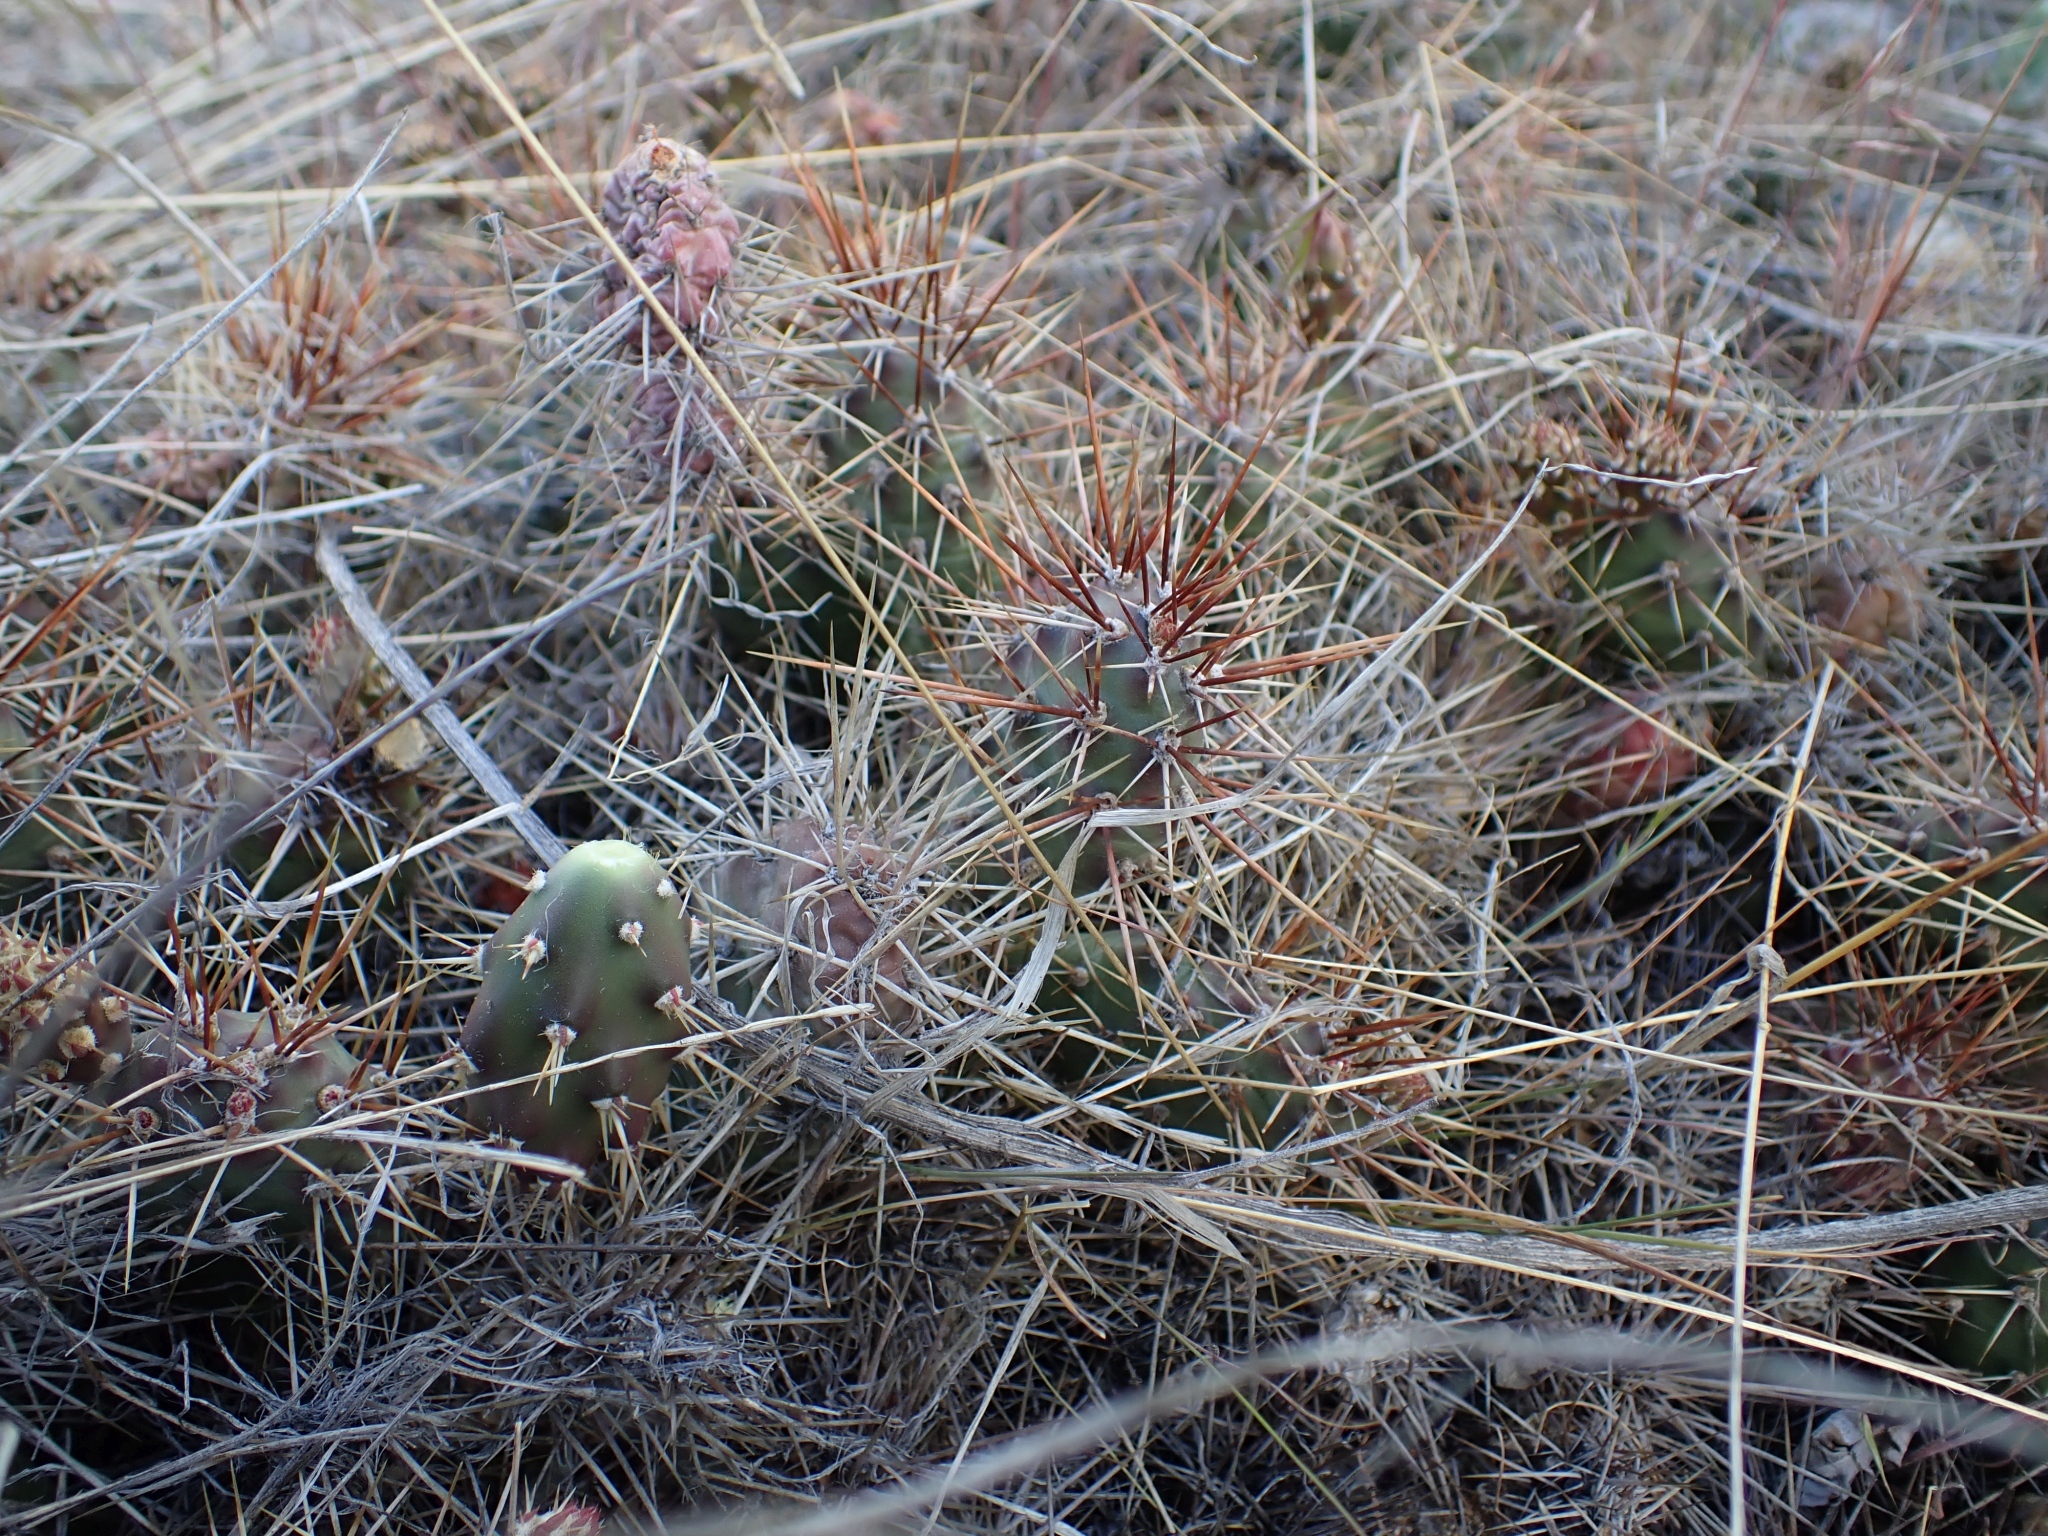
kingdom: Plantae
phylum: Tracheophyta
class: Magnoliopsida
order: Caryophyllales
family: Cactaceae
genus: Opuntia
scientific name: Opuntia fragilis
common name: Brittle cactus
